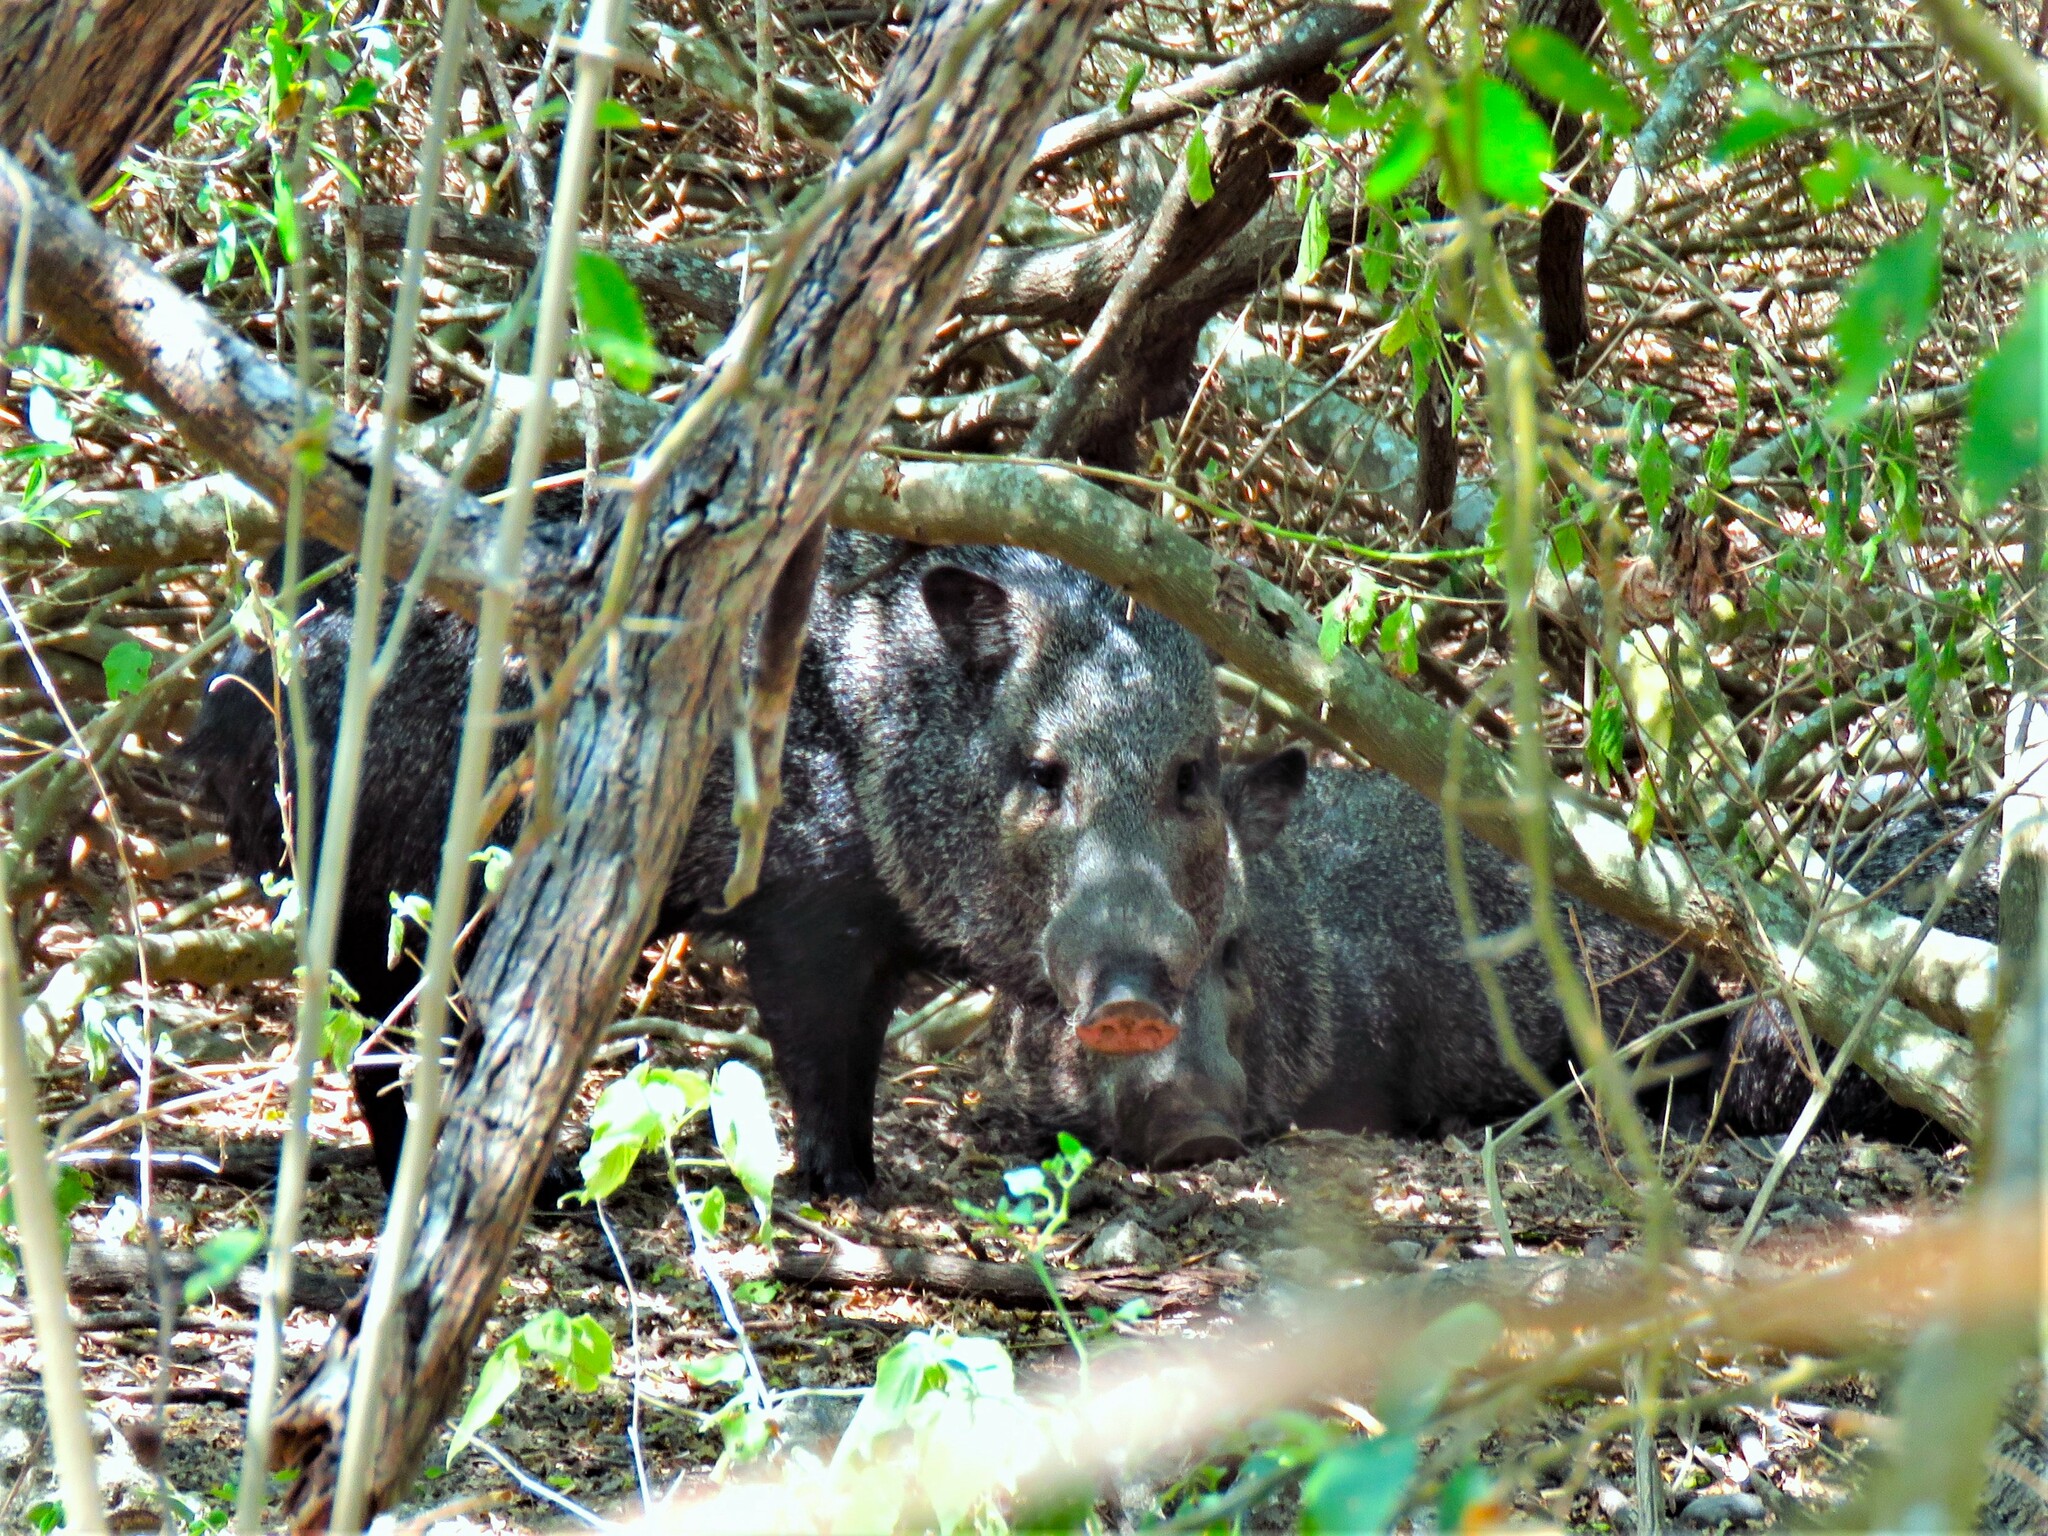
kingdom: Animalia
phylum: Chordata
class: Mammalia
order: Artiodactyla
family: Tayassuidae
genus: Pecari
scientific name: Pecari tajacu
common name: Collared peccary
